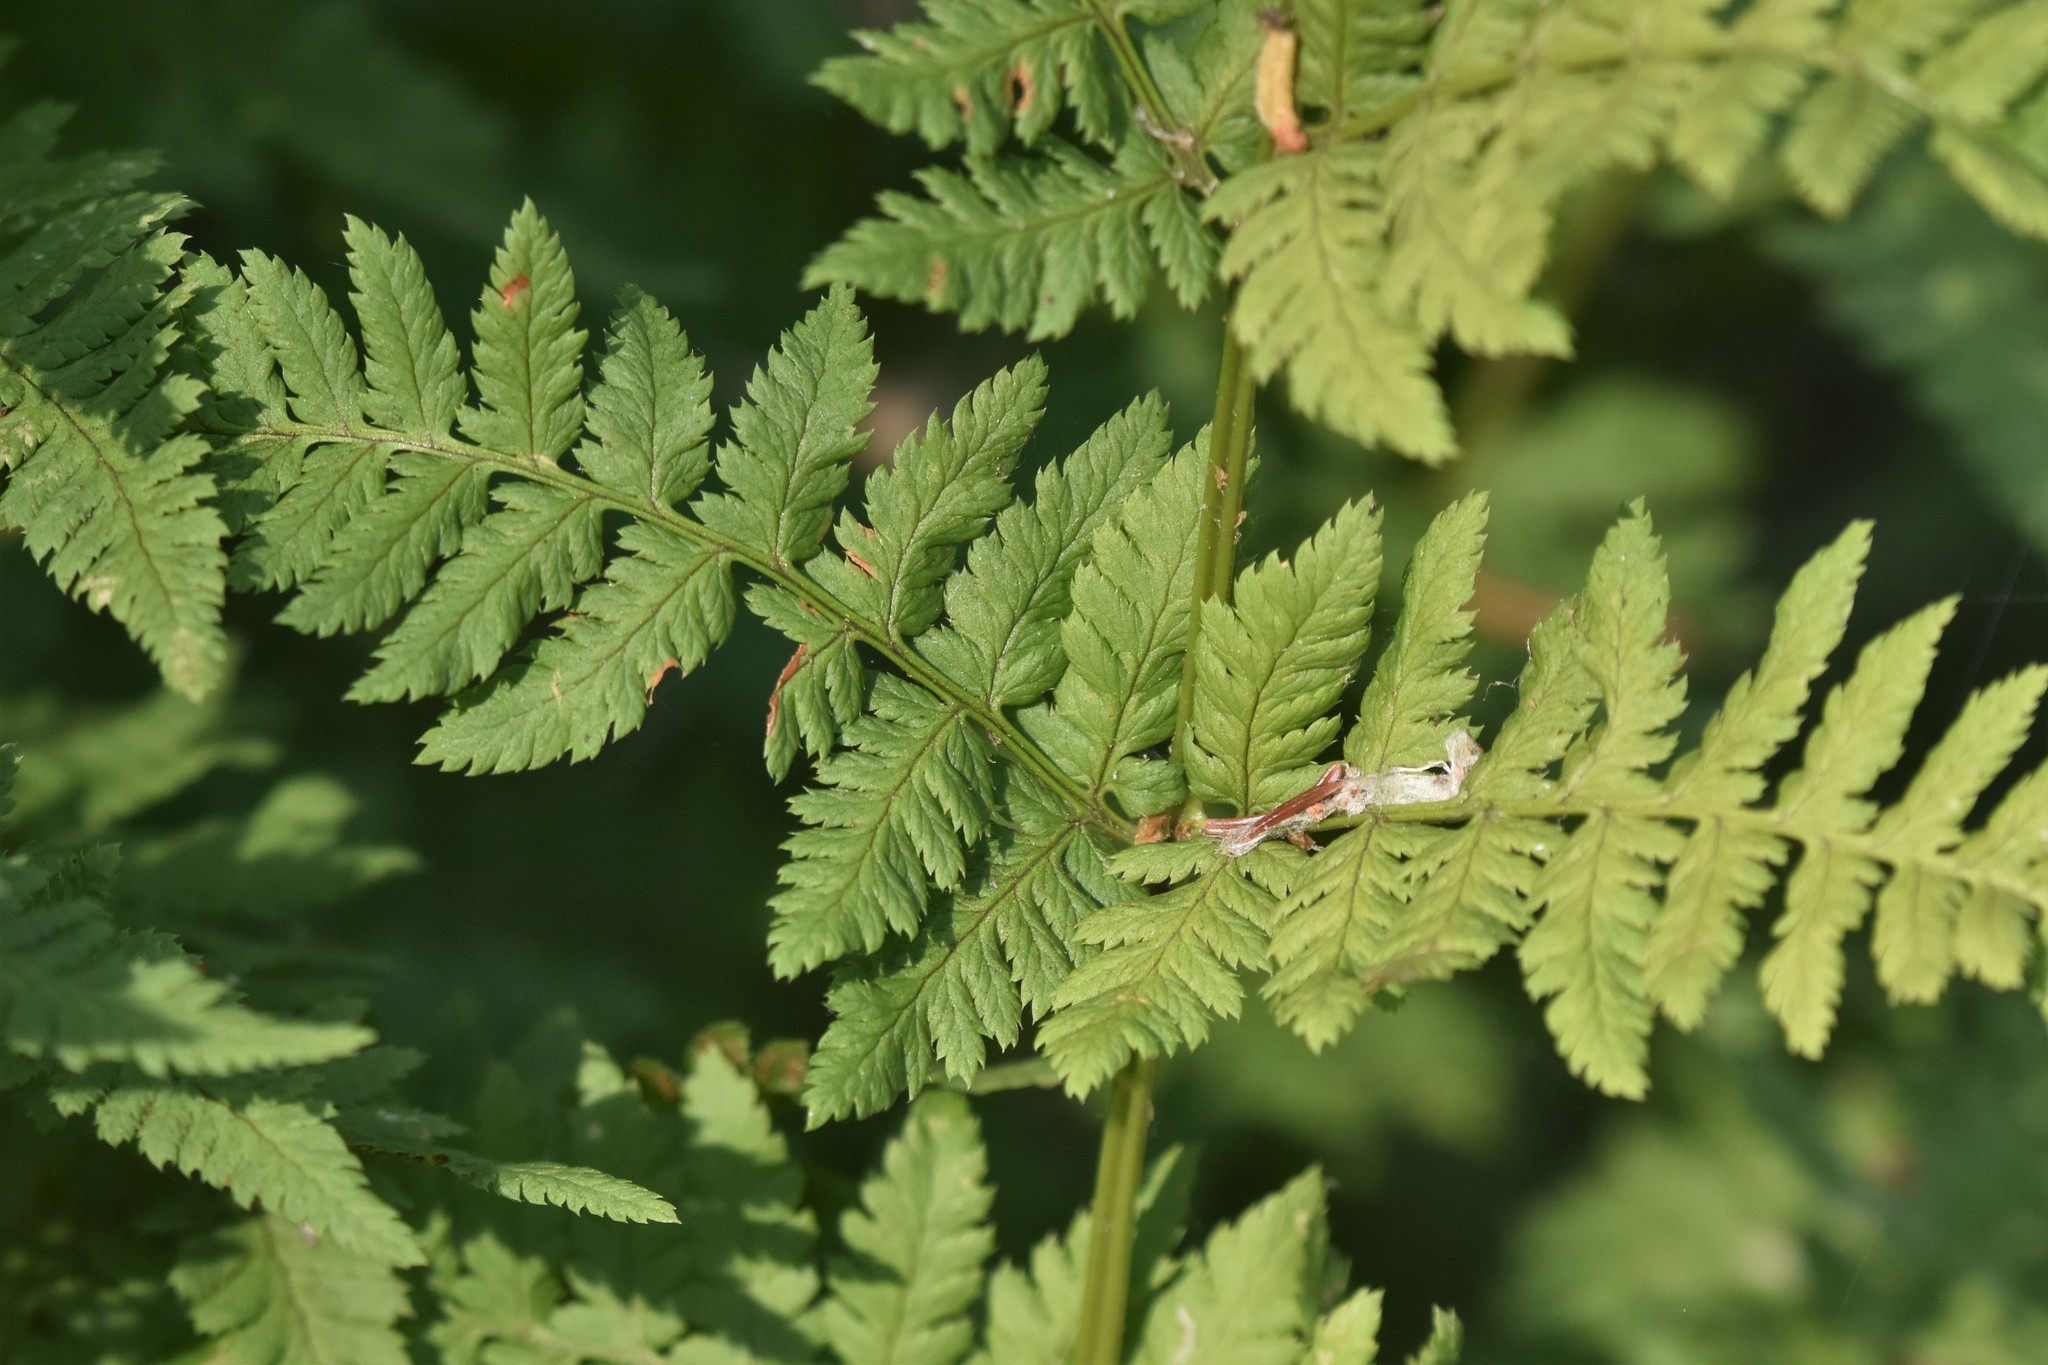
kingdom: Plantae
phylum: Tracheophyta
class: Polypodiopsida
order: Polypodiales
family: Dryopteridaceae
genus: Dryopteris
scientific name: Dryopteris carthusiana
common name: Narrow buckler-fern
